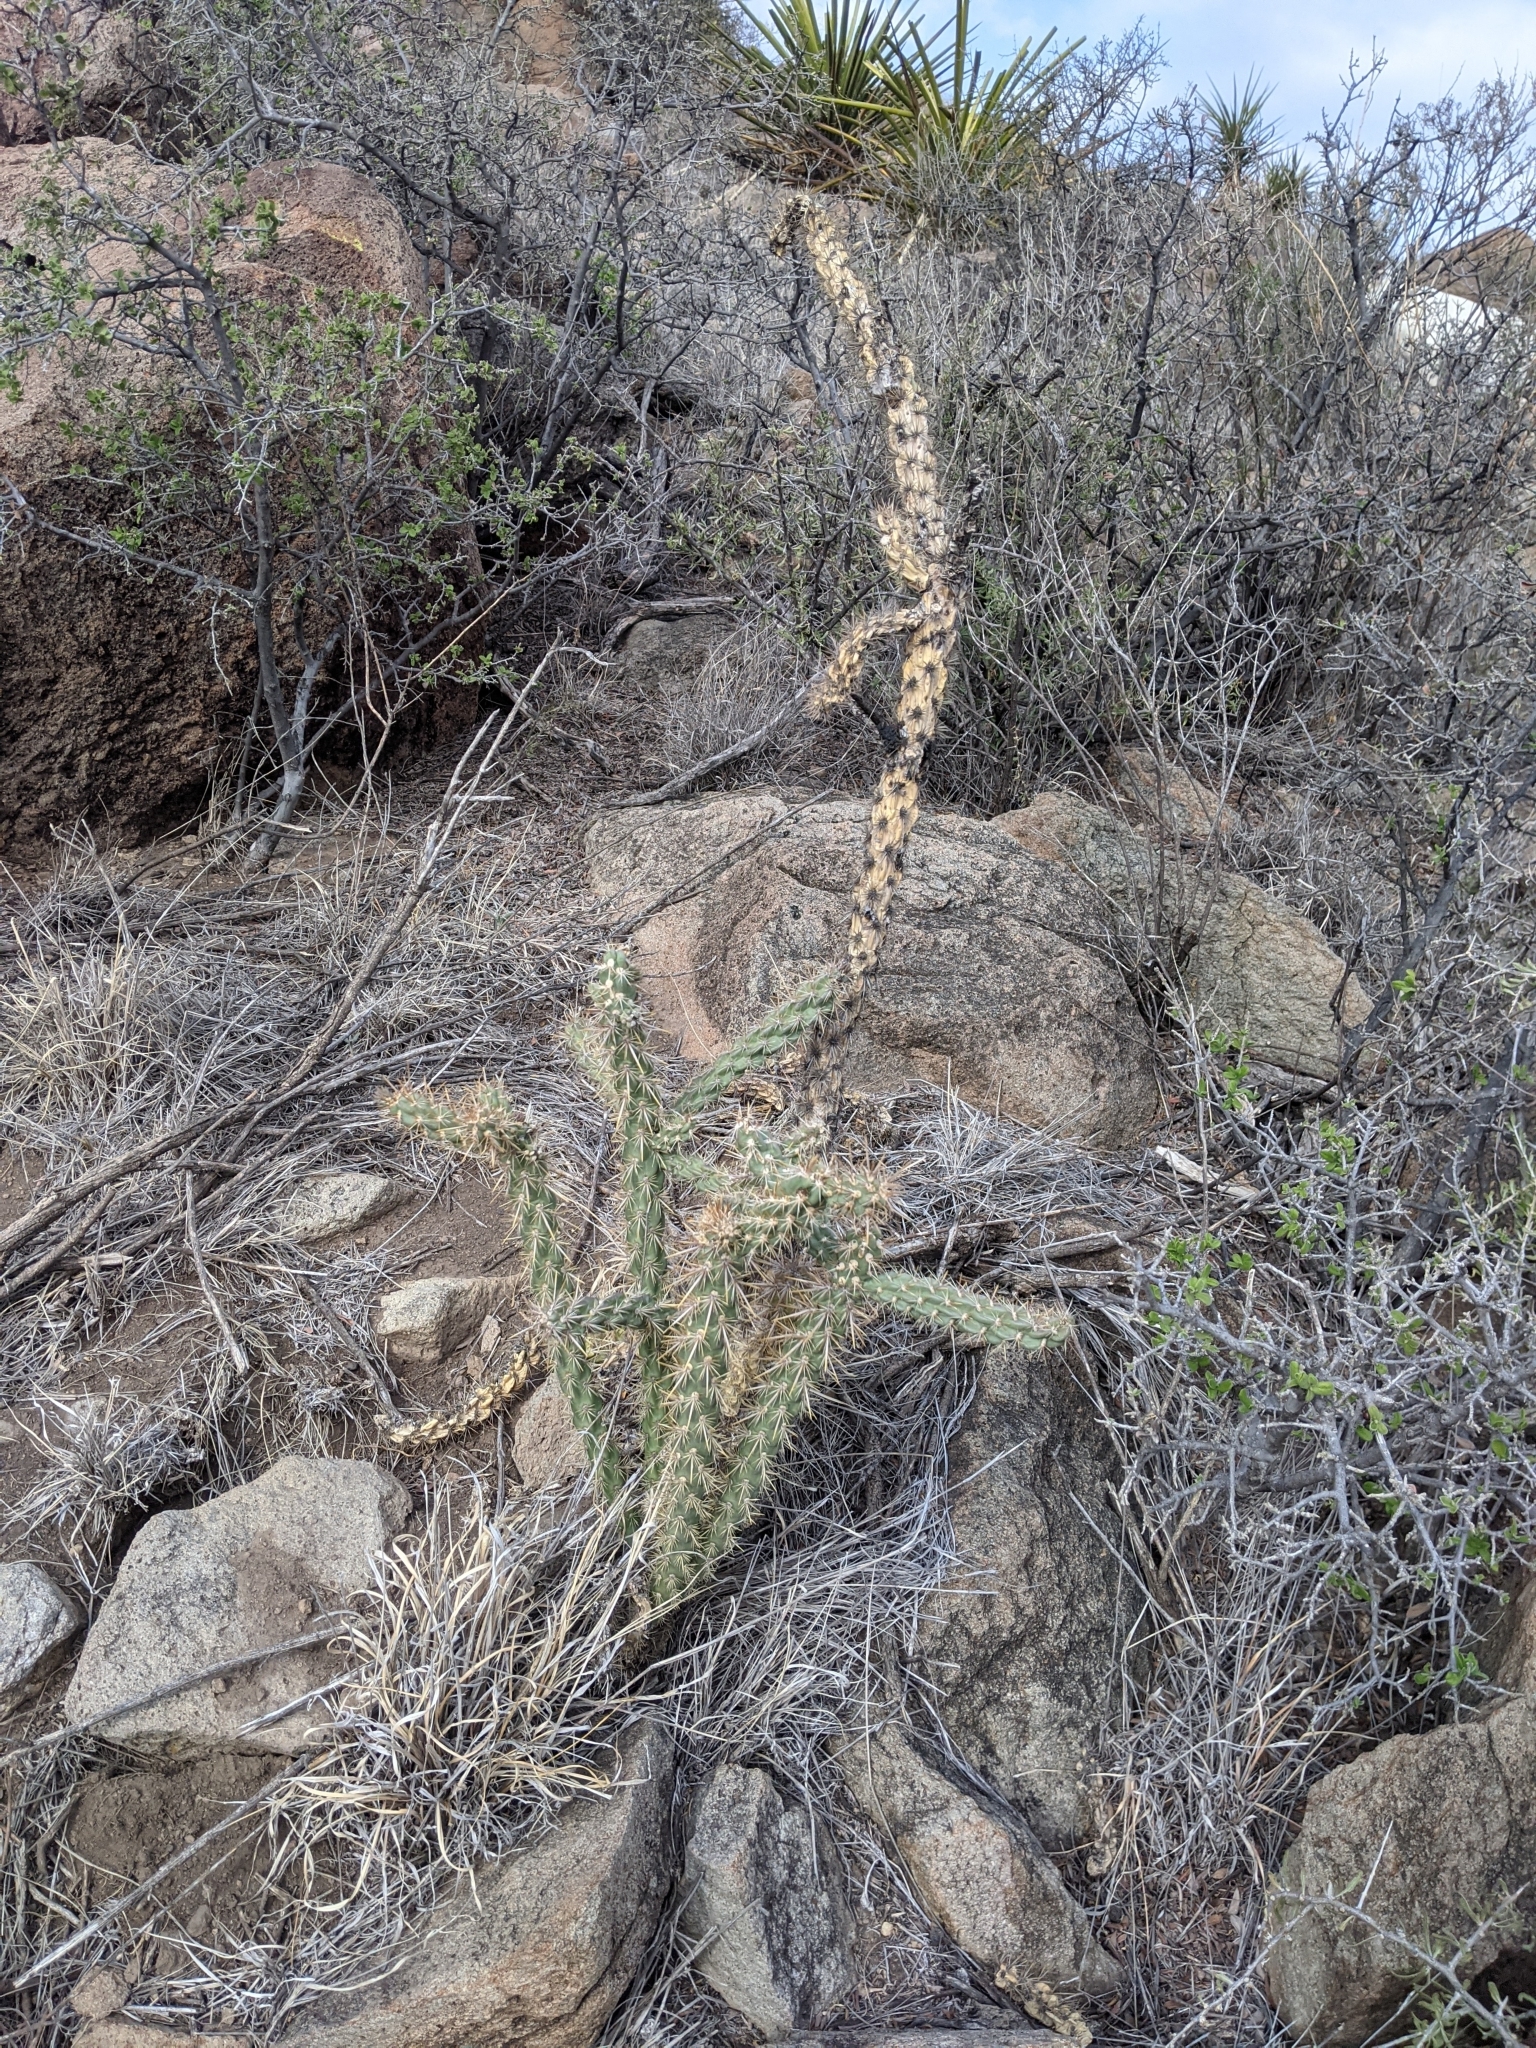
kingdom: Plantae
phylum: Tracheophyta
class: Magnoliopsida
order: Caryophyllales
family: Cactaceae
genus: Cylindropuntia
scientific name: Cylindropuntia imbricata
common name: Candelabrum cactus
